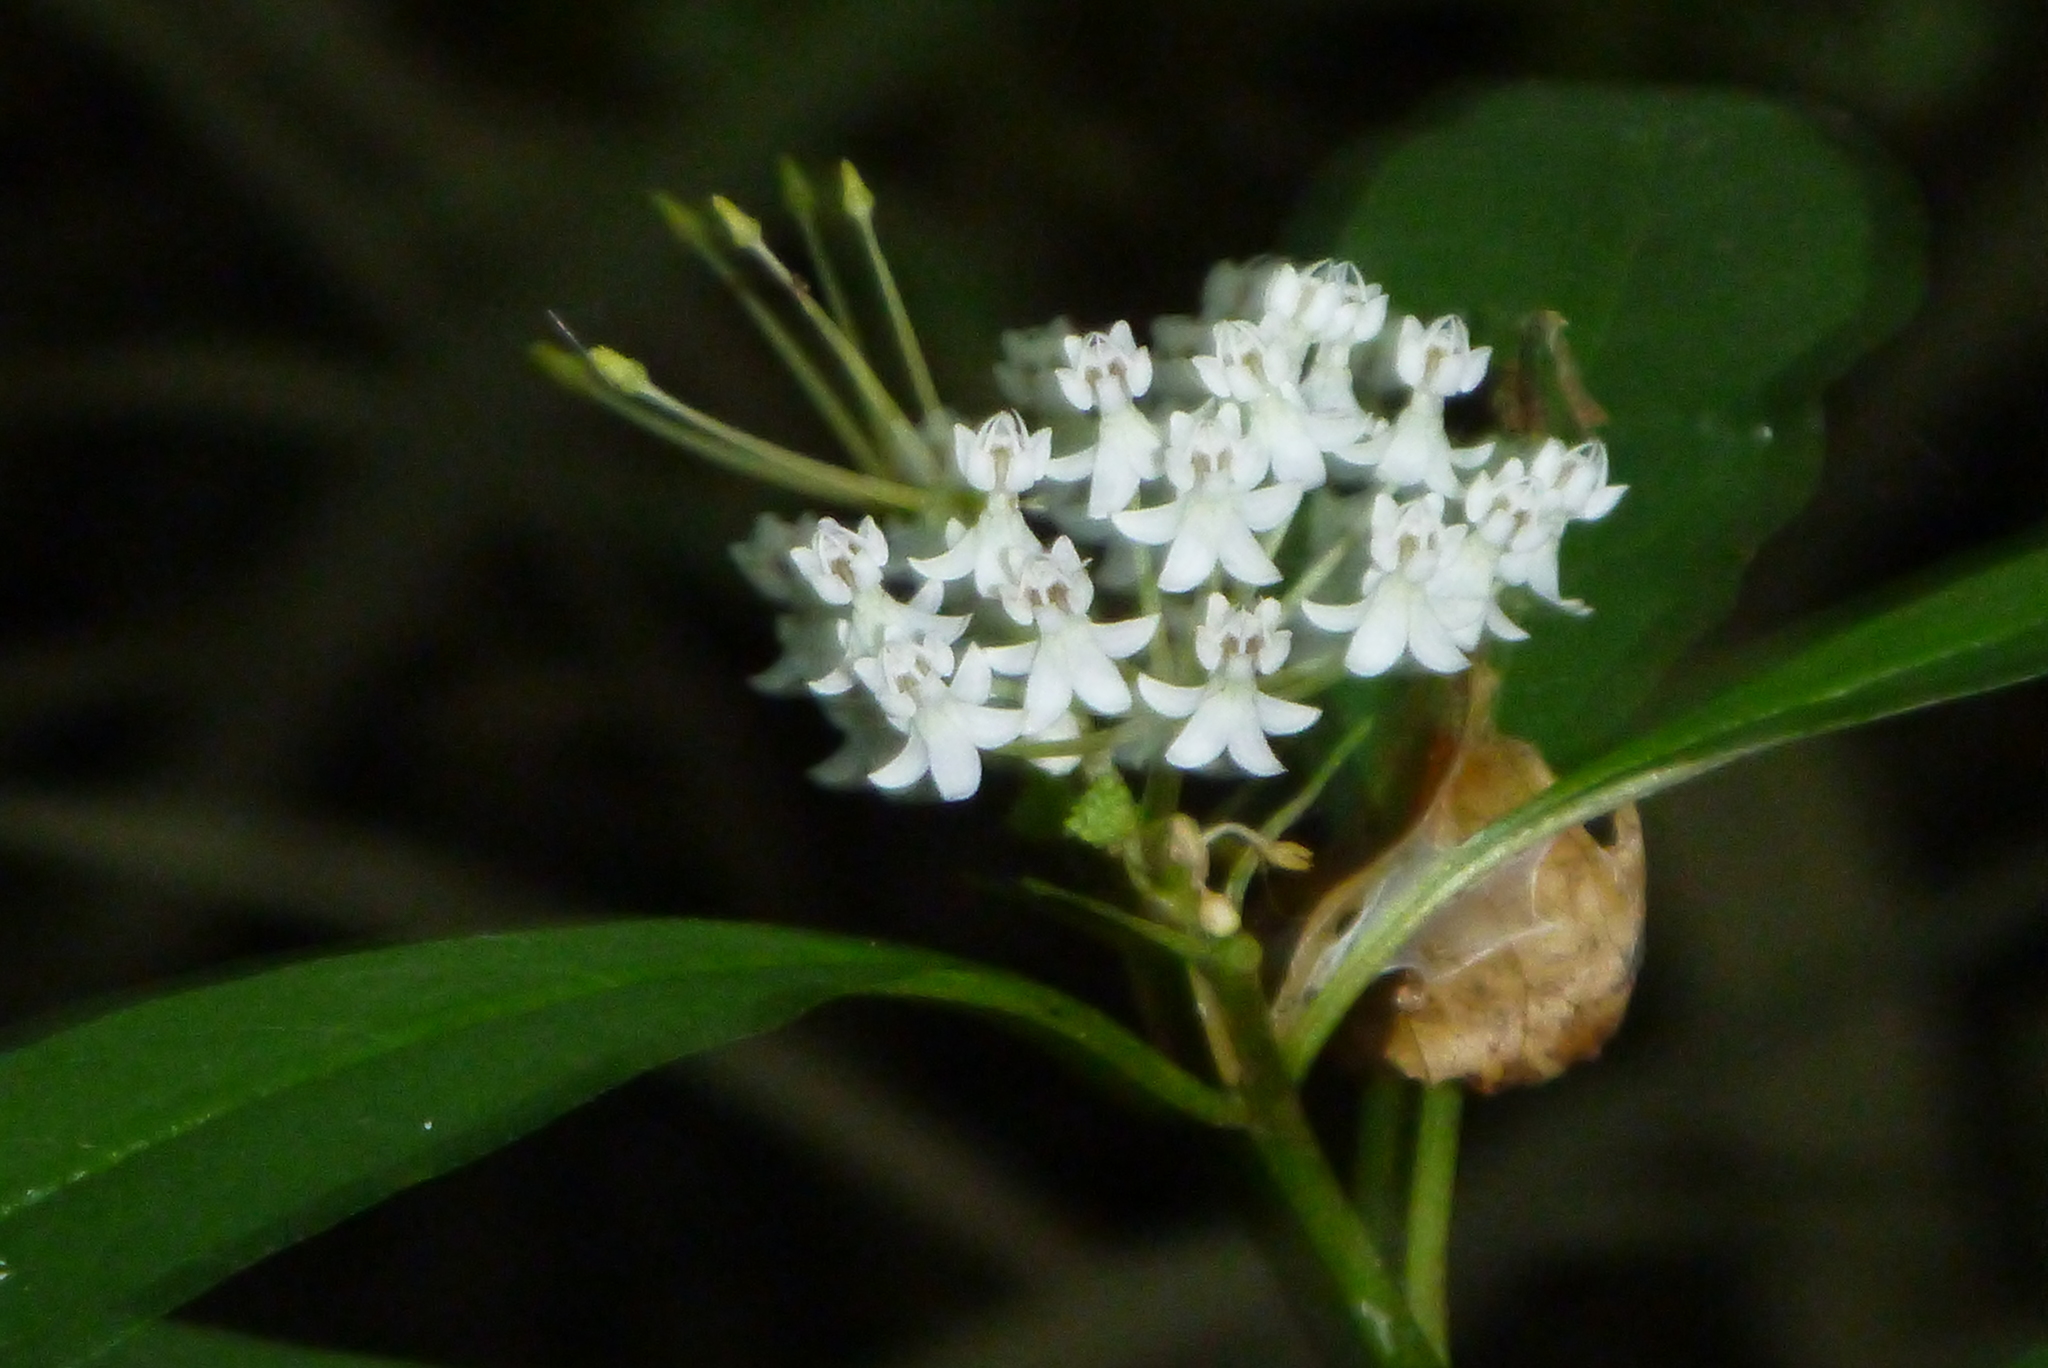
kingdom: Plantae
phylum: Tracheophyta
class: Magnoliopsida
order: Gentianales
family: Apocynaceae
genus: Asclepias
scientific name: Asclepias perennis
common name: Smooth-seed milkweed
